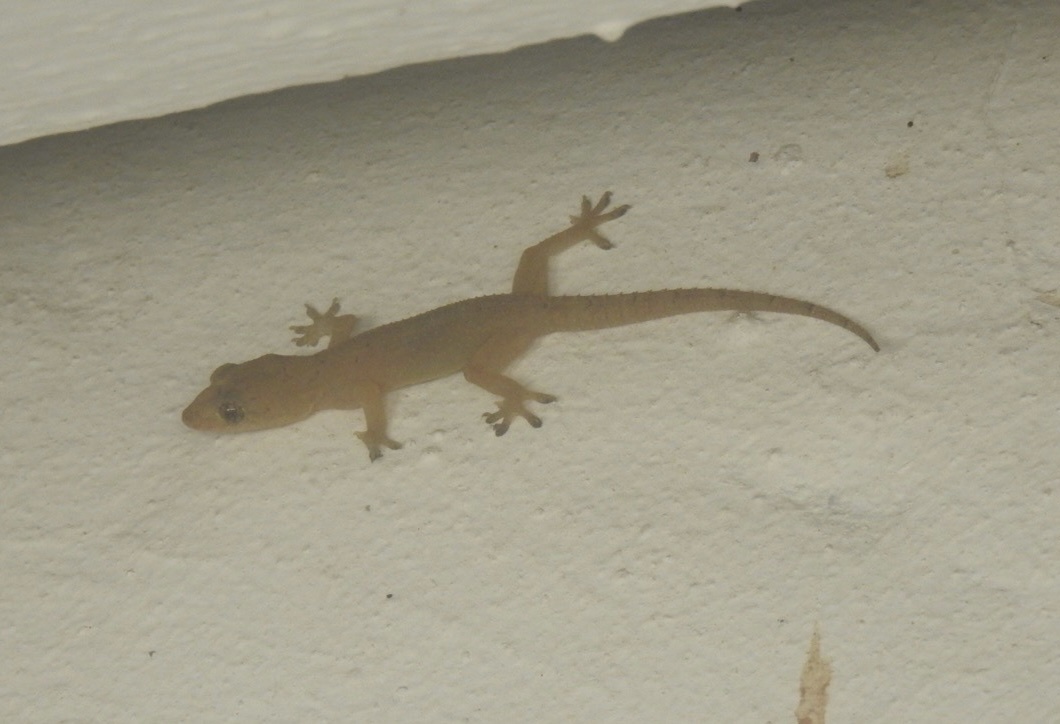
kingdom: Animalia
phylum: Chordata
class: Squamata
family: Gekkonidae
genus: Hemidactylus
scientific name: Hemidactylus mabouia
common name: House gecko
